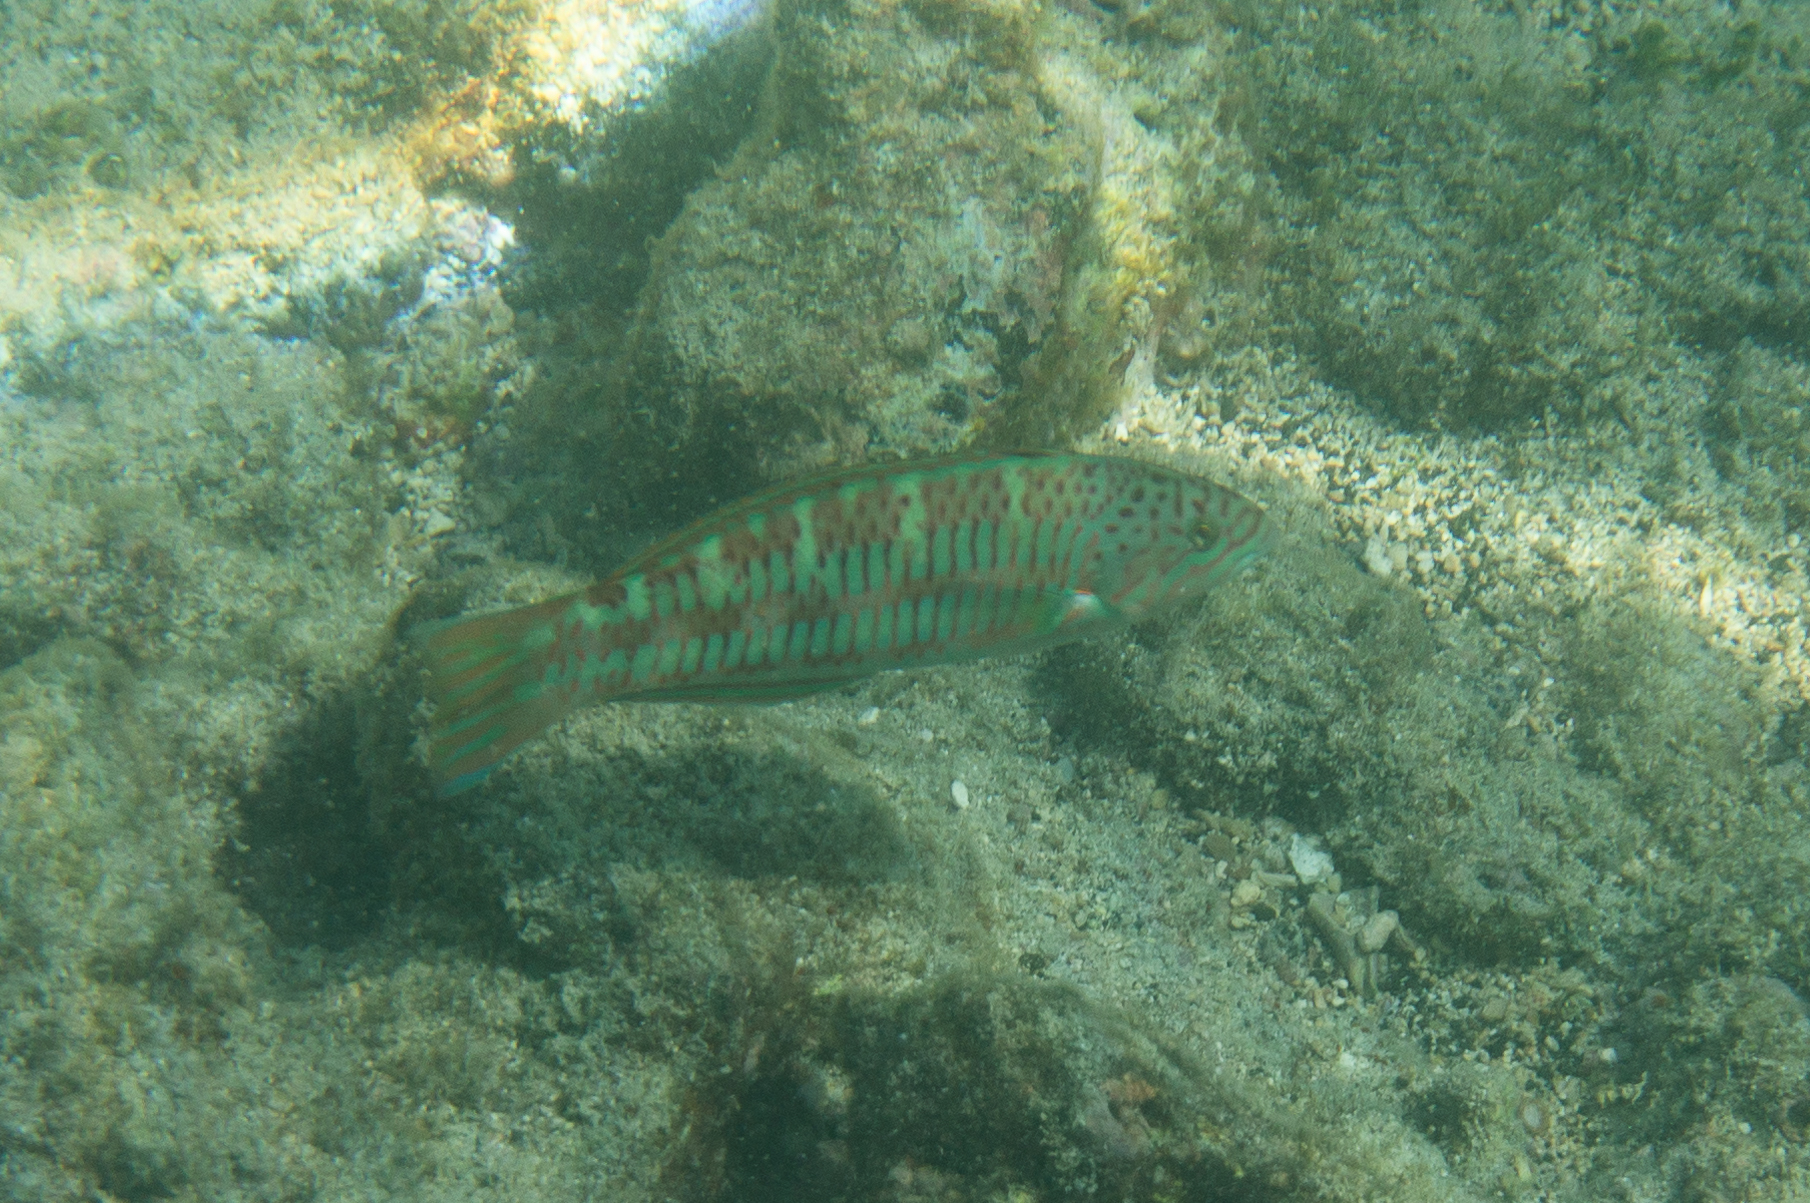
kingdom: Animalia
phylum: Chordata
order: Perciformes
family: Labridae
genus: Thalassoma
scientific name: Thalassoma trilobatum
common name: Christmas wrasse
